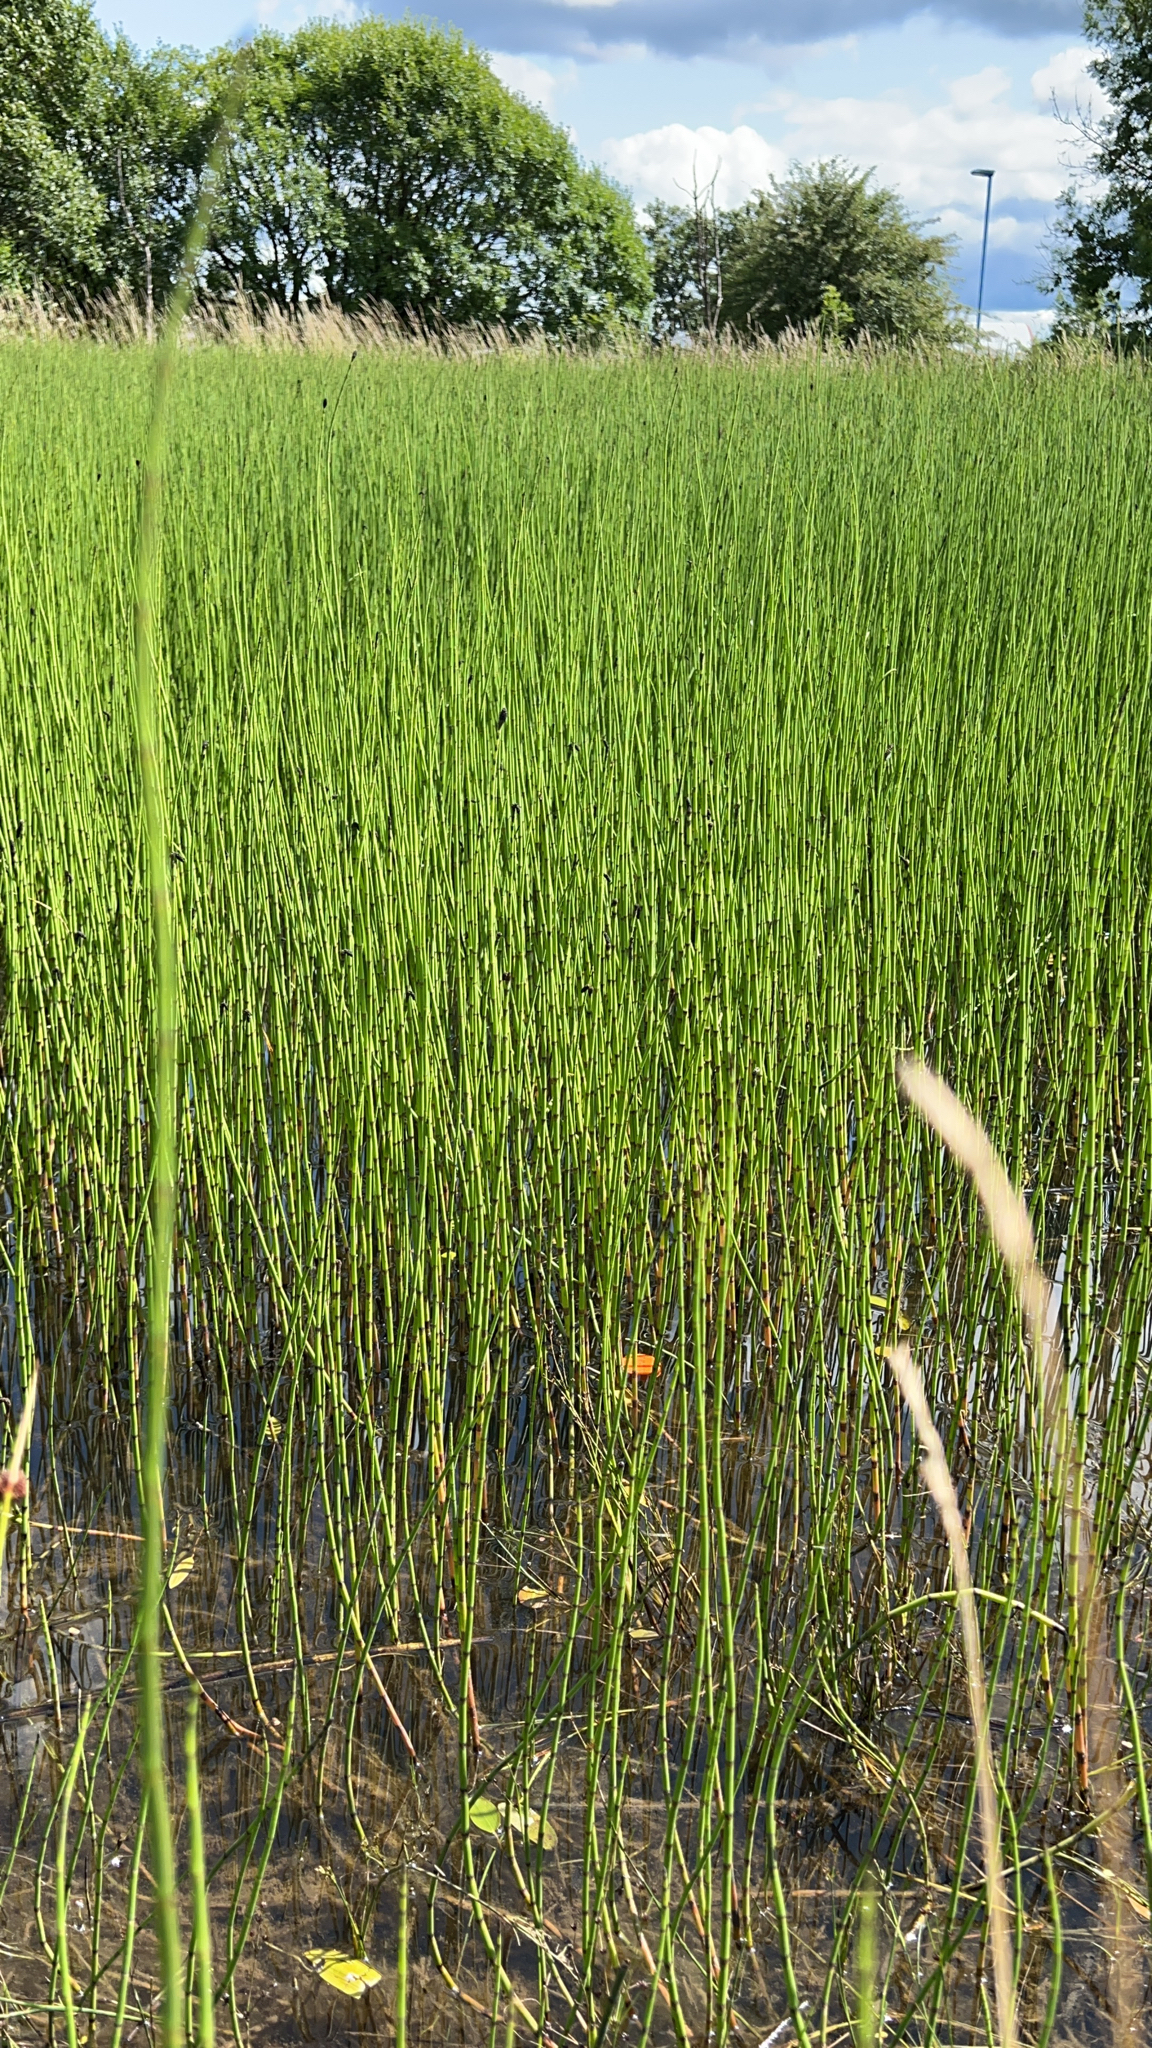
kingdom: Plantae
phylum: Tracheophyta
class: Polypodiopsida
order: Equisetales
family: Equisetaceae
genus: Equisetum
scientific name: Equisetum fluviatile
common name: Water horsetail
